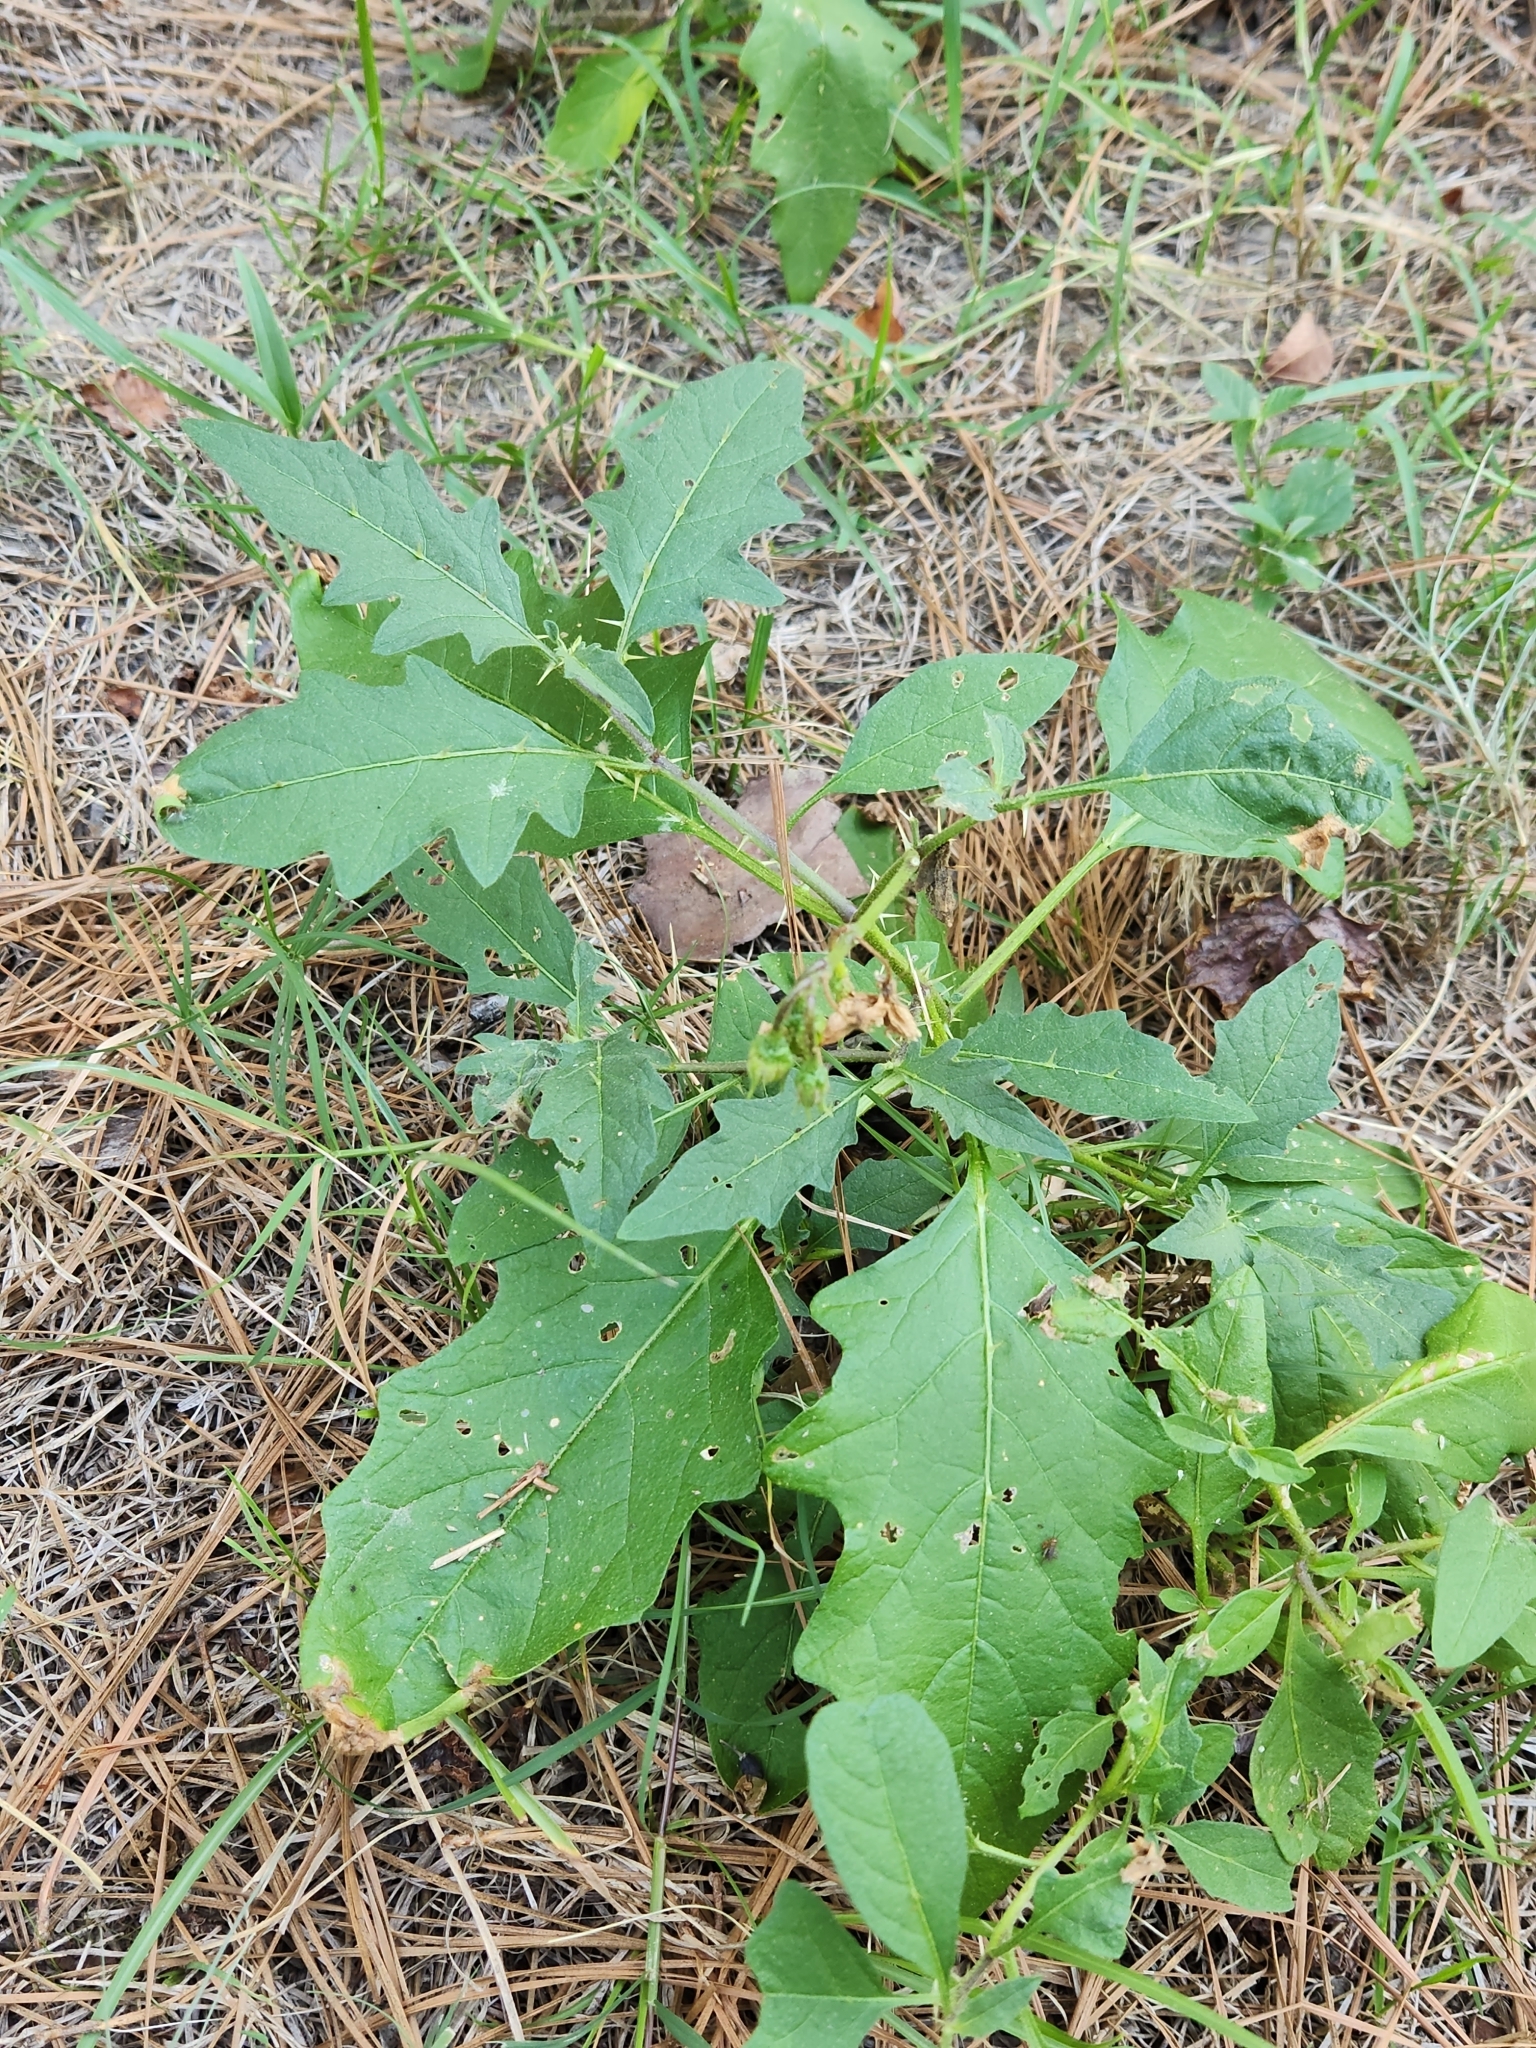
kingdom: Plantae
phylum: Tracheophyta
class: Magnoliopsida
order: Solanales
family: Solanaceae
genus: Solanum
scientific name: Solanum carolinense
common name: Horse-nettle
